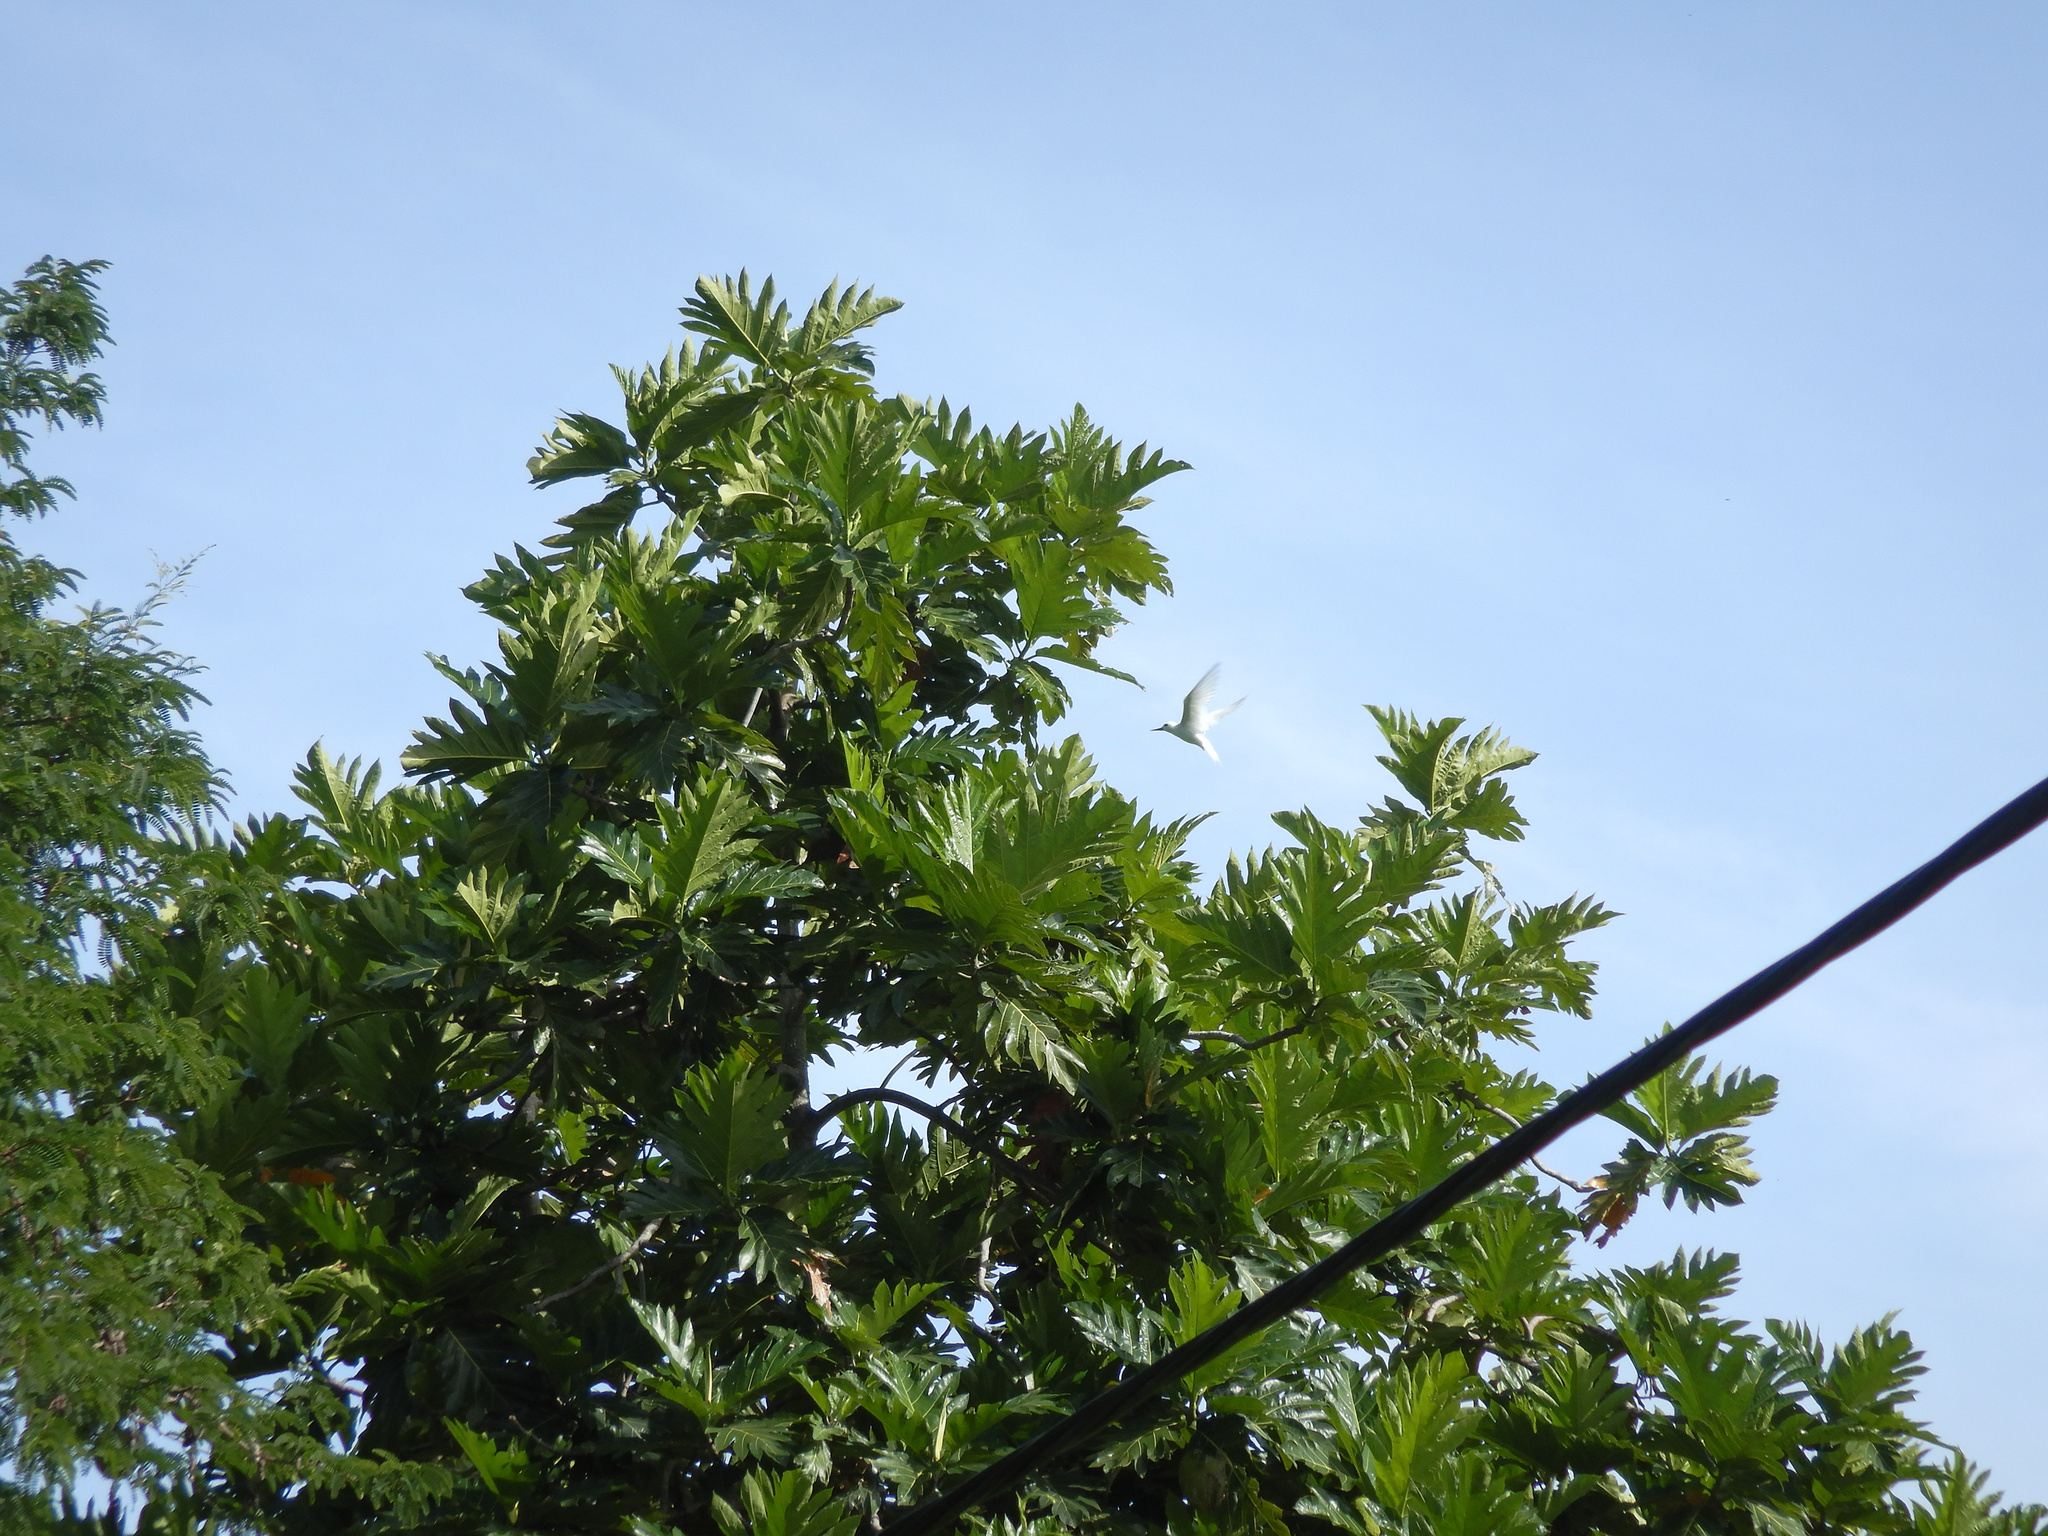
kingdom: Plantae
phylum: Tracheophyta
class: Magnoliopsida
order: Rosales
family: Moraceae
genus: Artocarpus
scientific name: Artocarpus altilis
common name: Breadfruit
